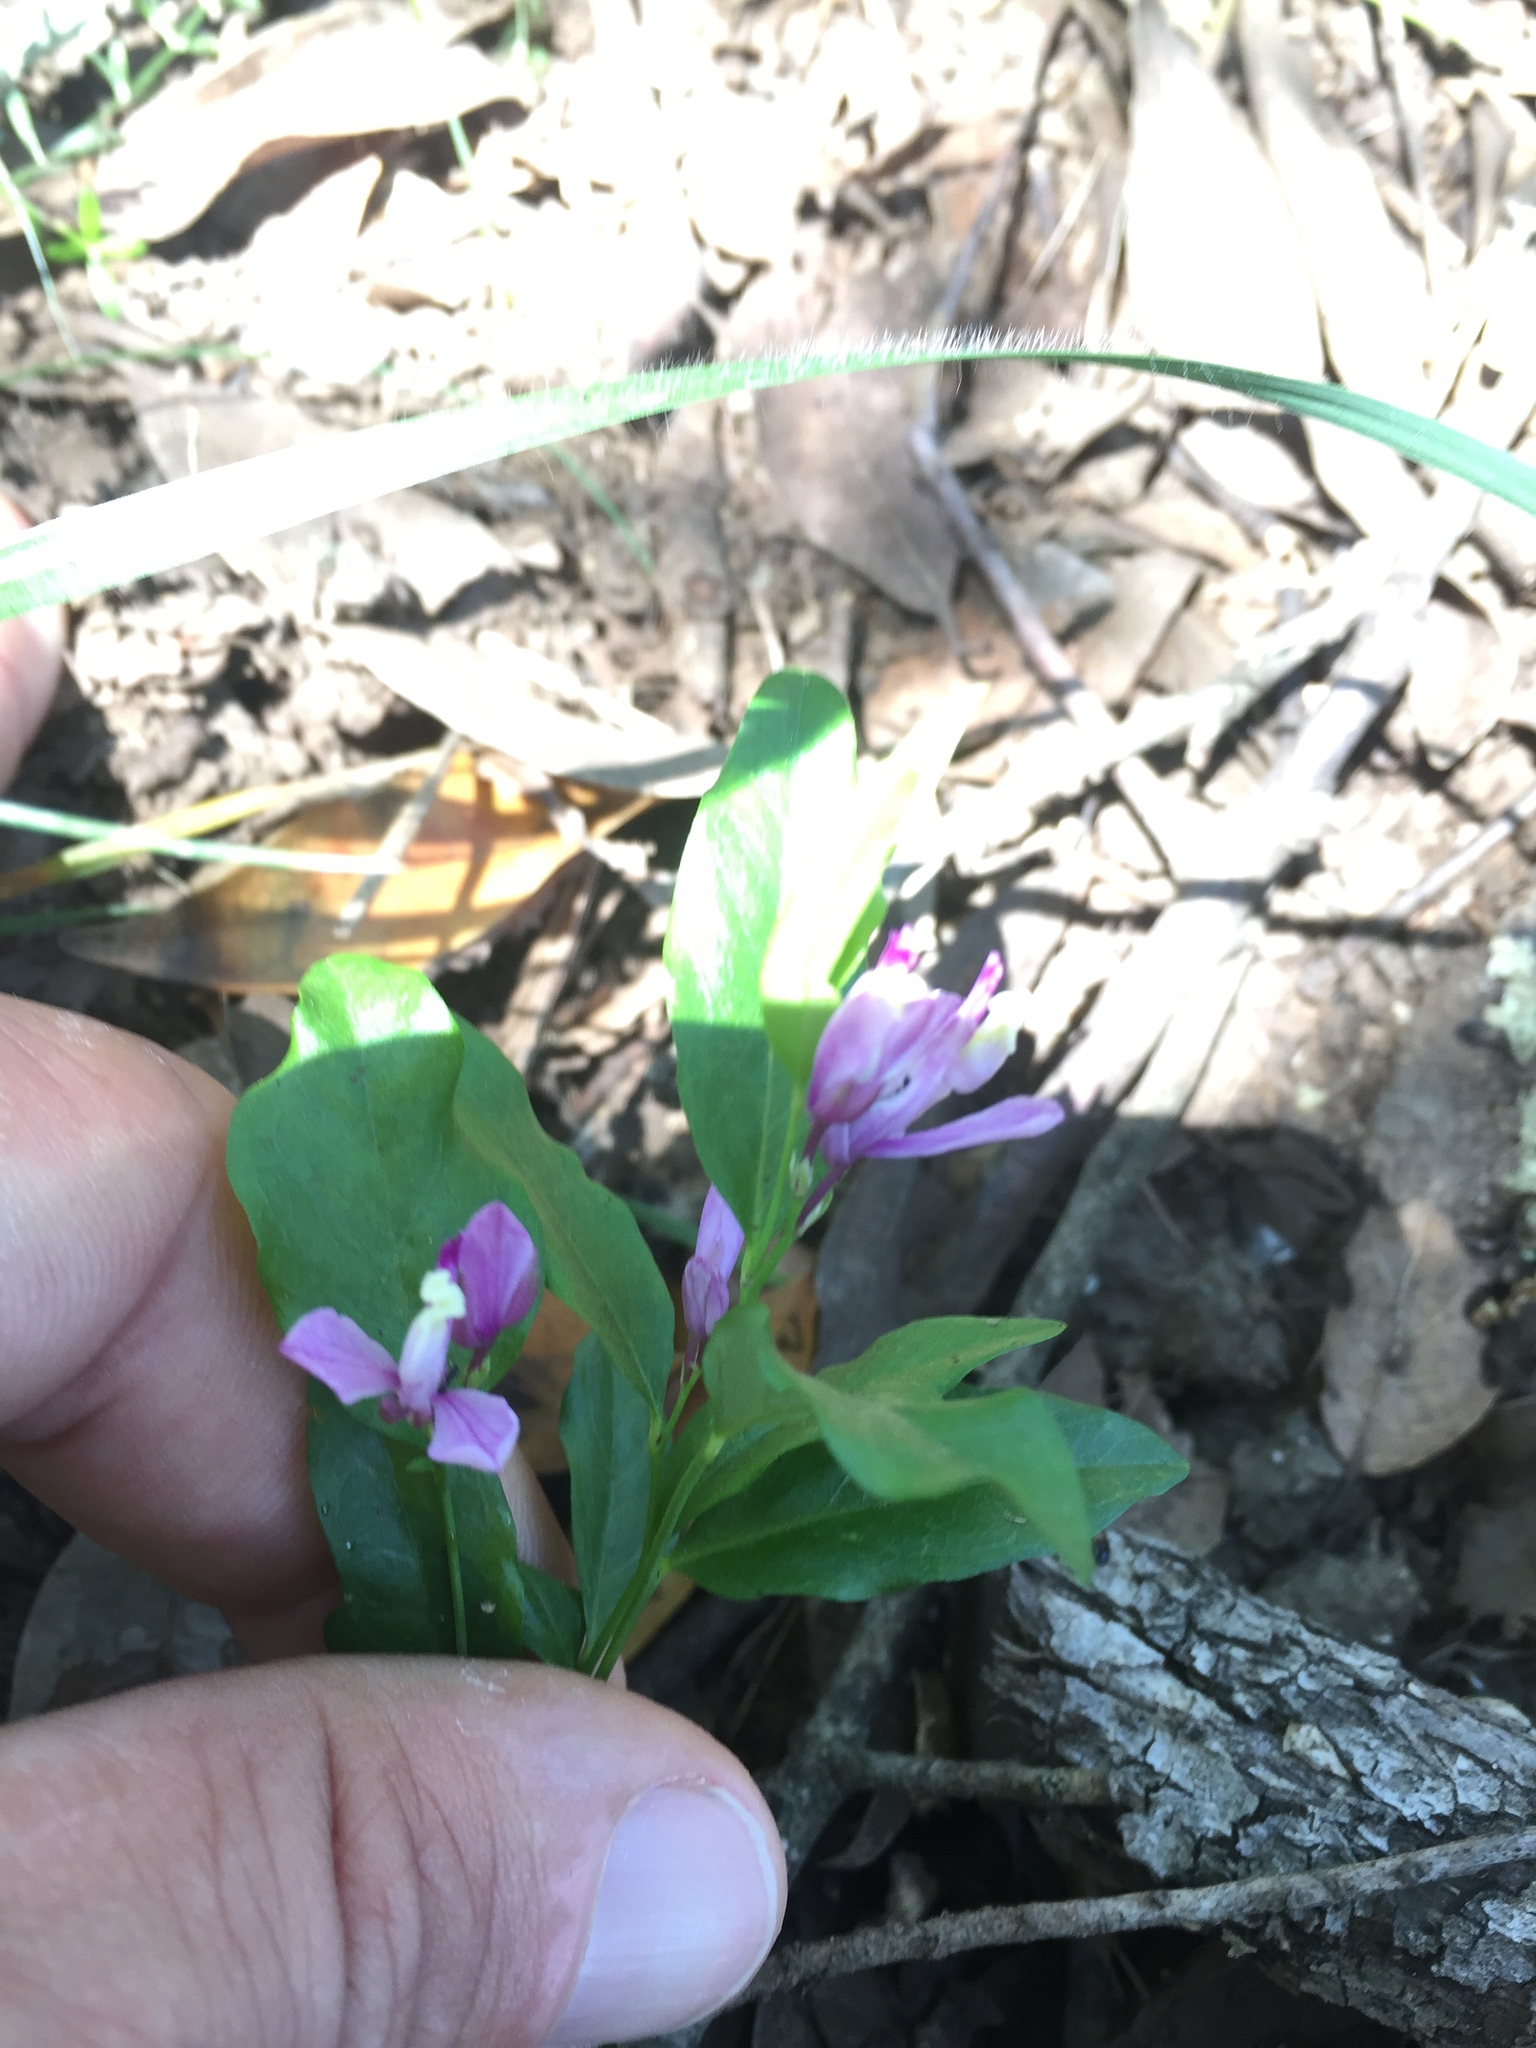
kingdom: Plantae
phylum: Tracheophyta
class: Magnoliopsida
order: Fabales
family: Polygalaceae
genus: Rhinotropis
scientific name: Rhinotropis californica
